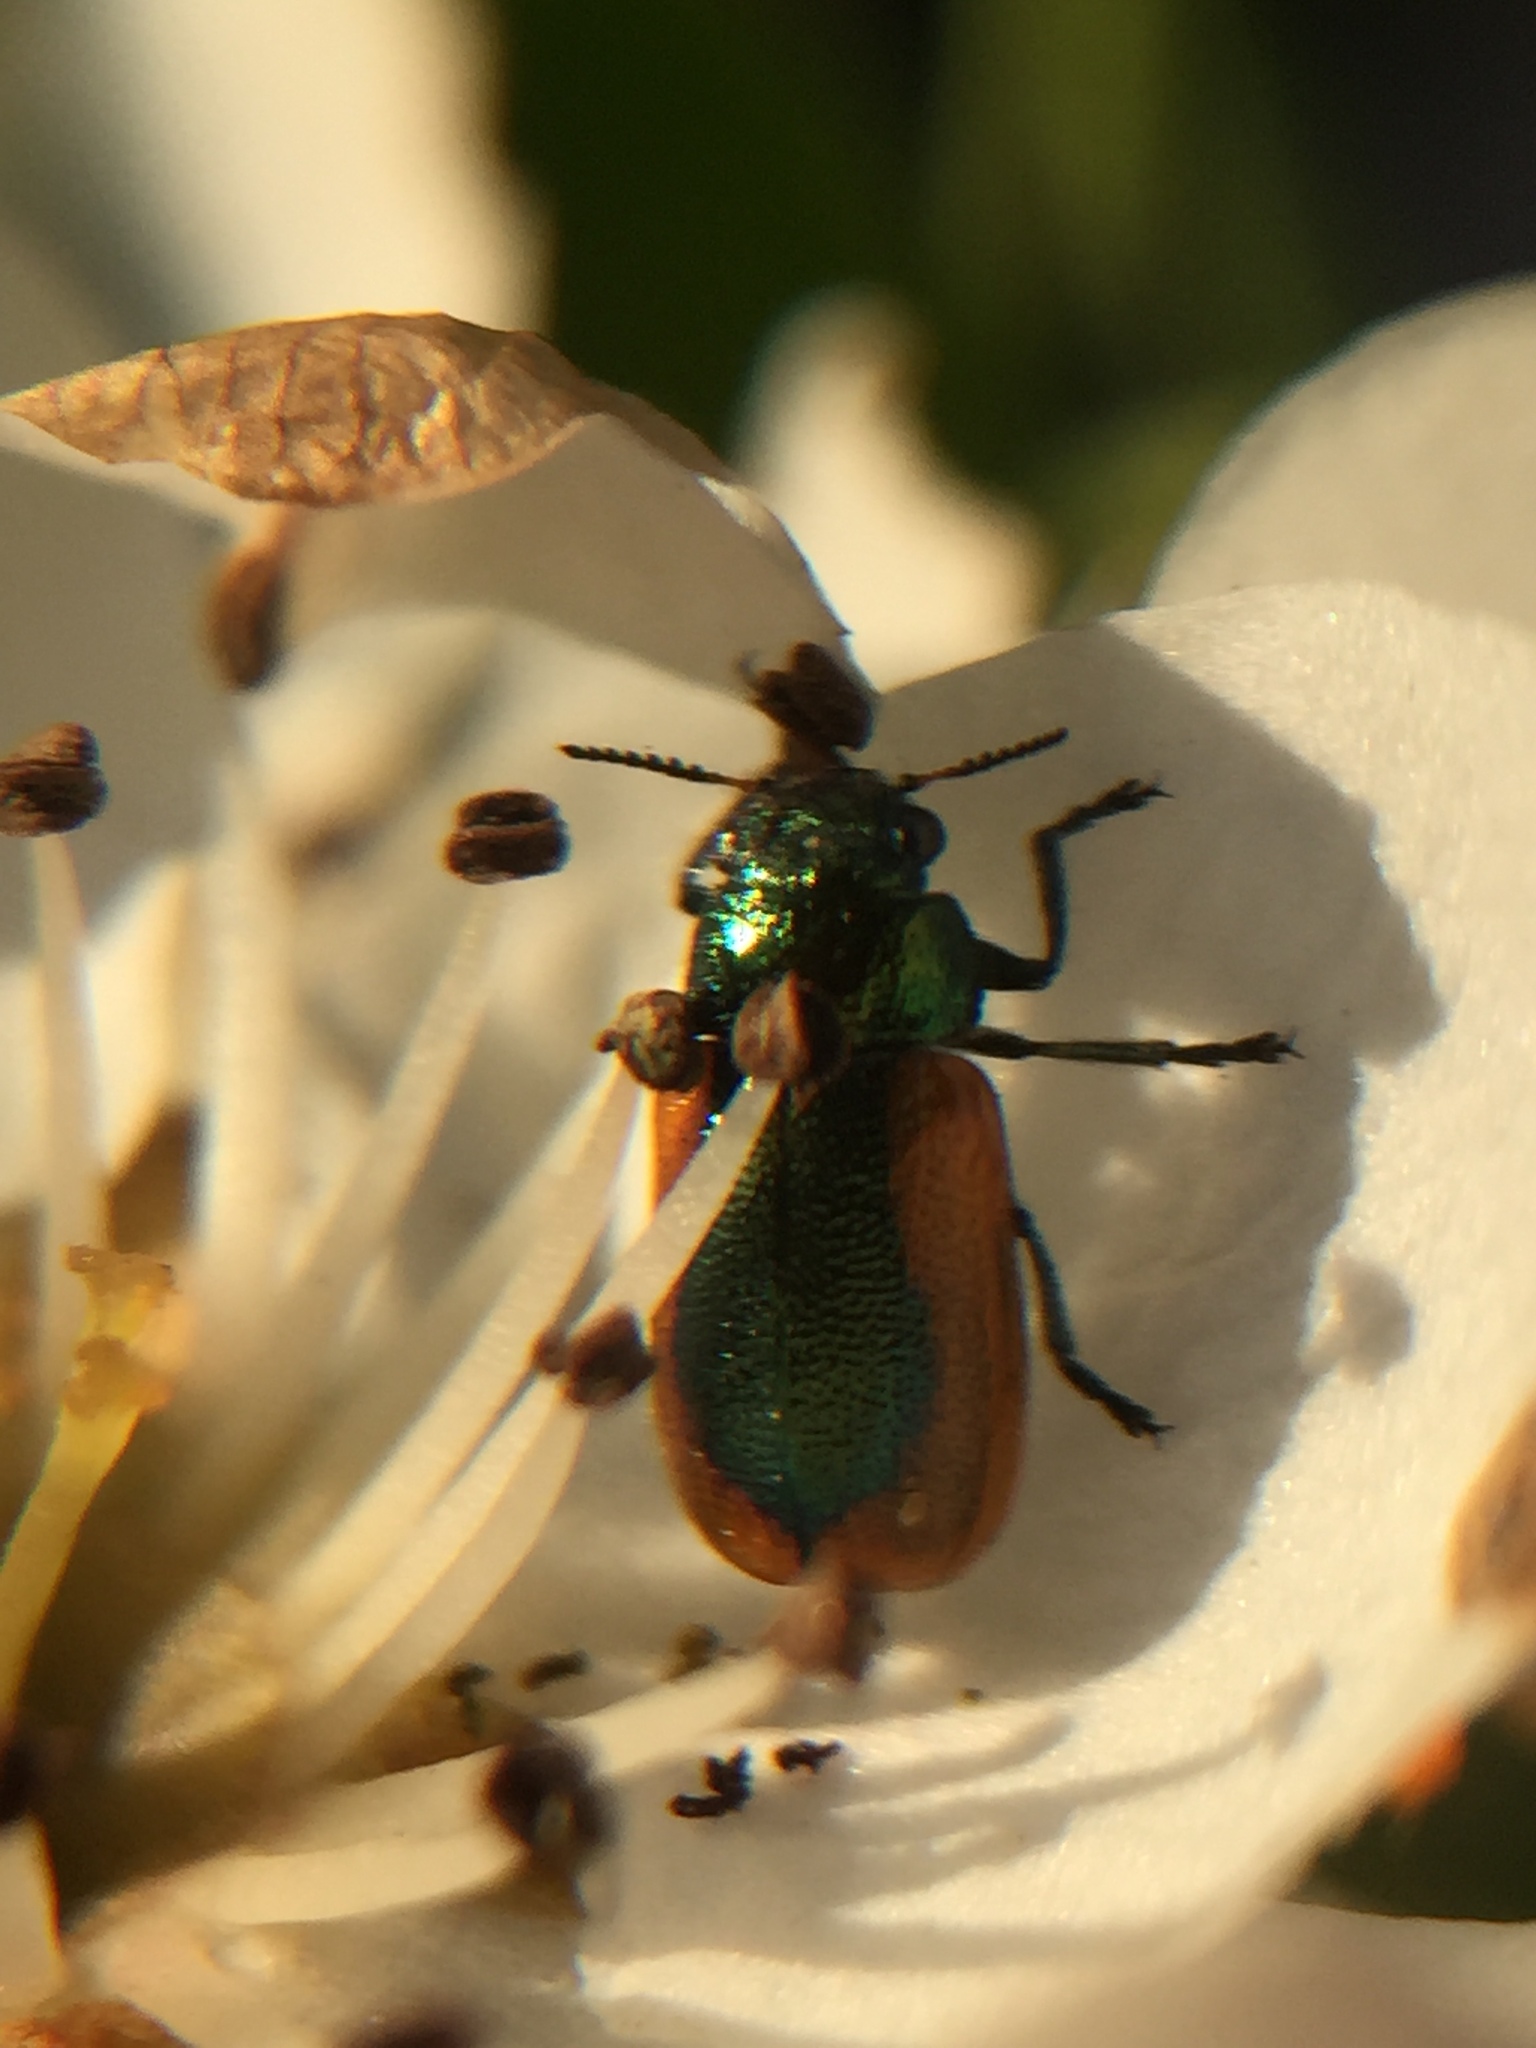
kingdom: Animalia
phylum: Arthropoda
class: Insecta
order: Coleoptera
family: Chrysomelidae
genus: Smaragdina
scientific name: Smaragdina limbata
